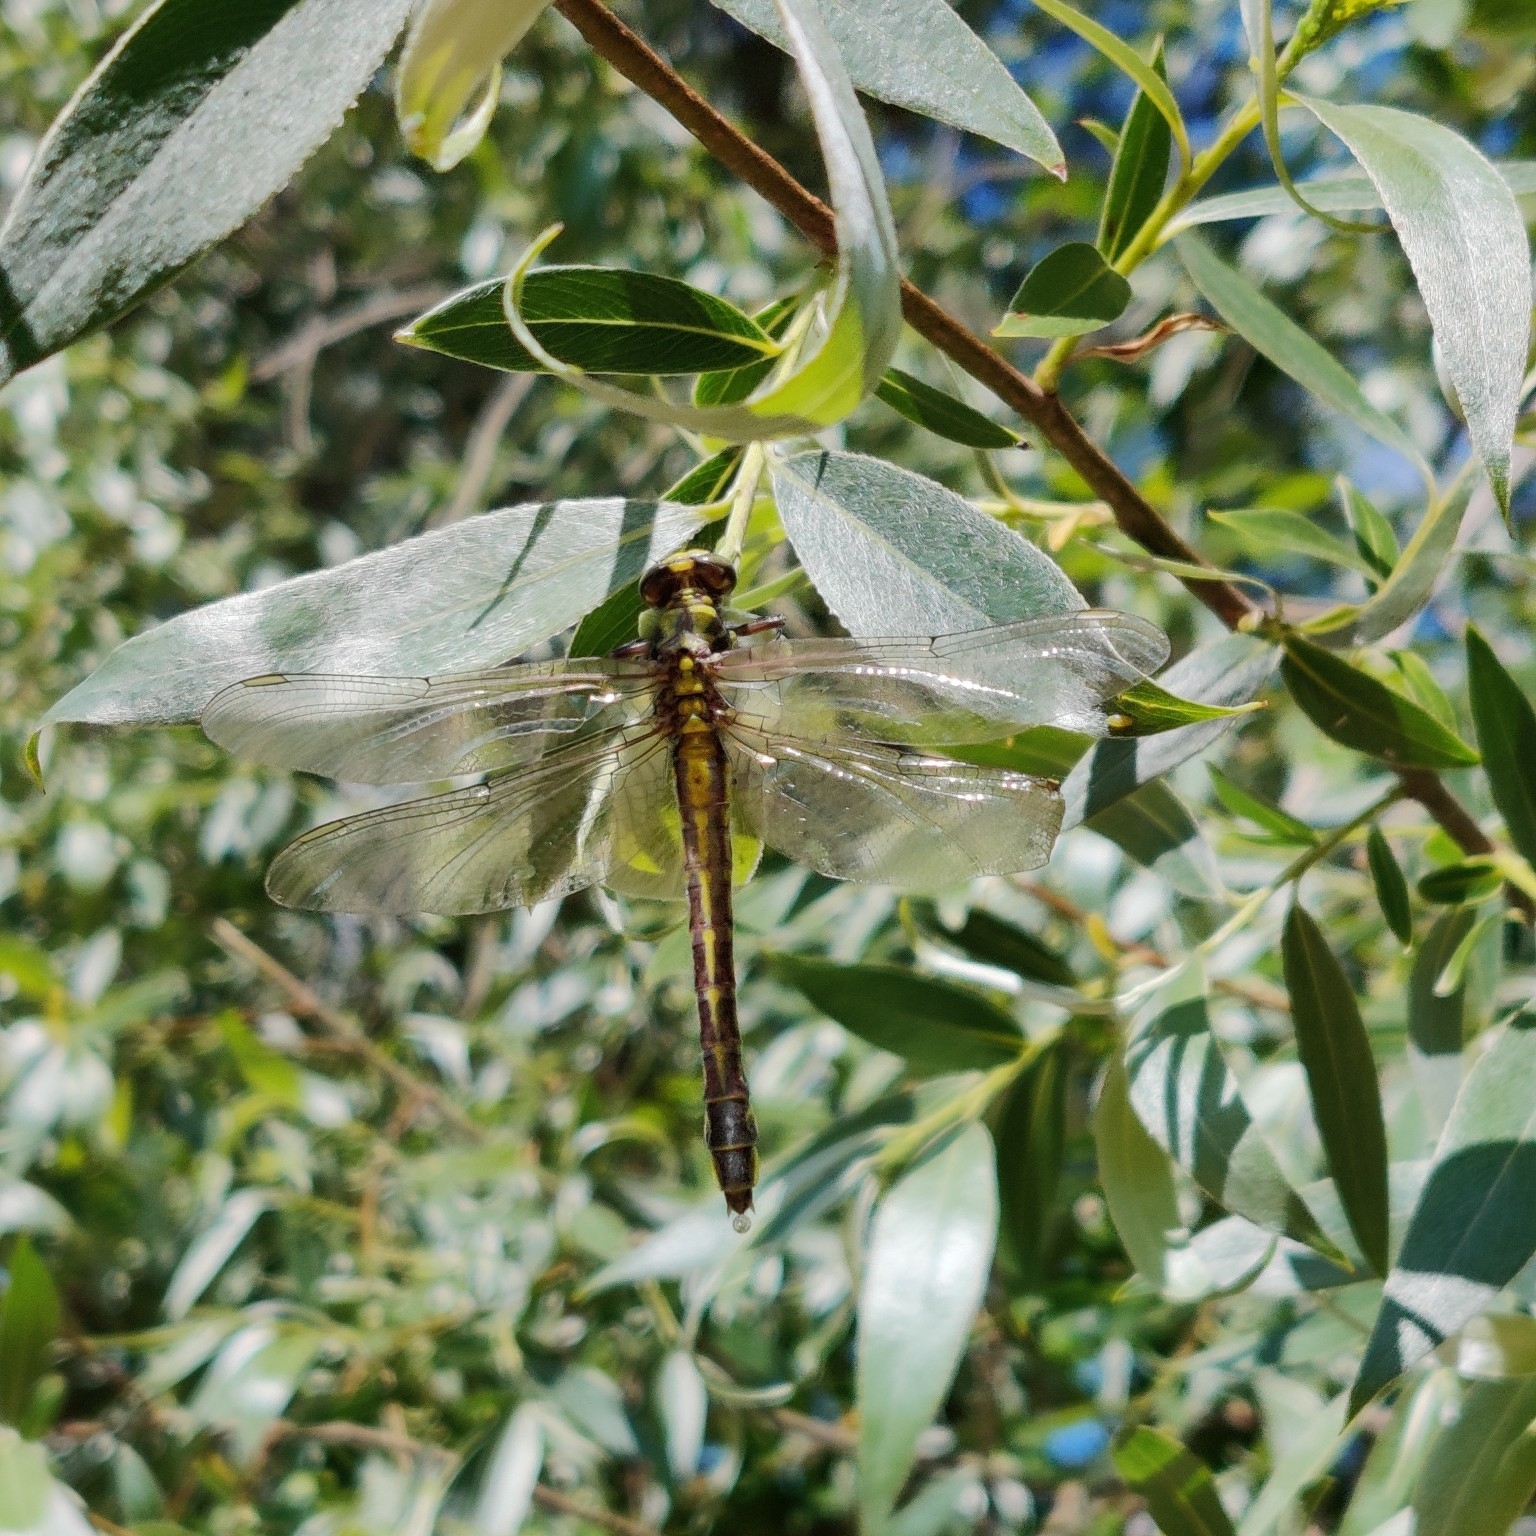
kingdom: Animalia
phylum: Arthropoda
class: Insecta
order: Odonata
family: Gomphidae
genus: Gomphus
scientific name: Gomphus vulgatissimus
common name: Club-tailed dragonfly
